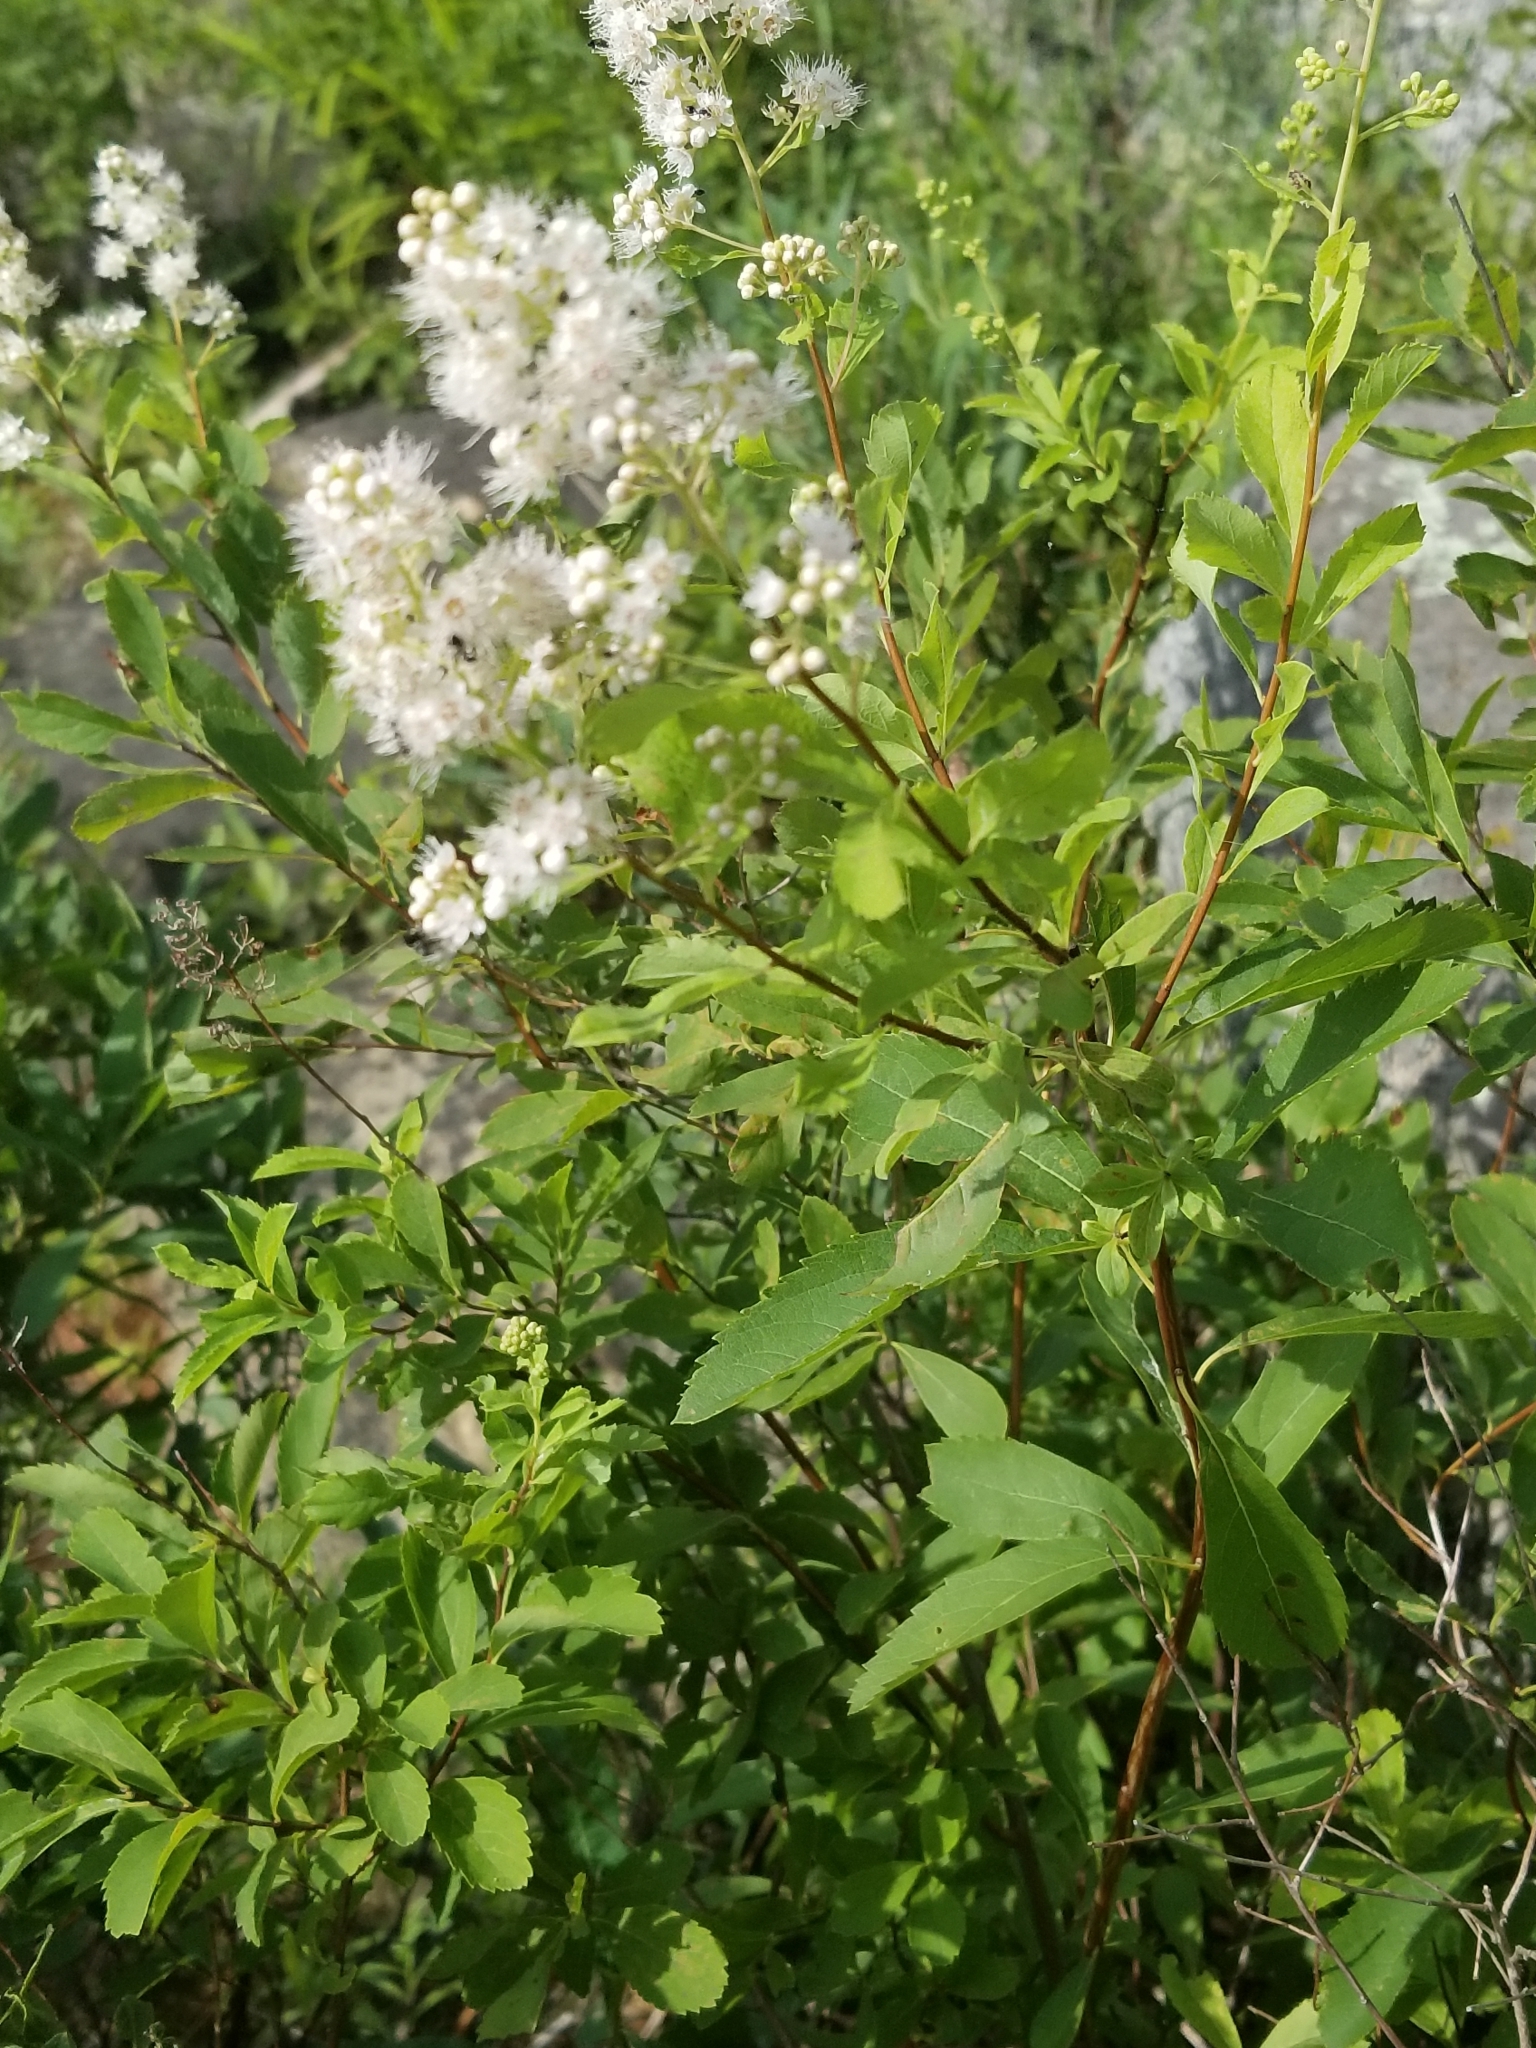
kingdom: Plantae
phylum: Tracheophyta
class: Magnoliopsida
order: Rosales
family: Rosaceae
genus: Spiraea
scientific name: Spiraea alba
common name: Pale bridewort
